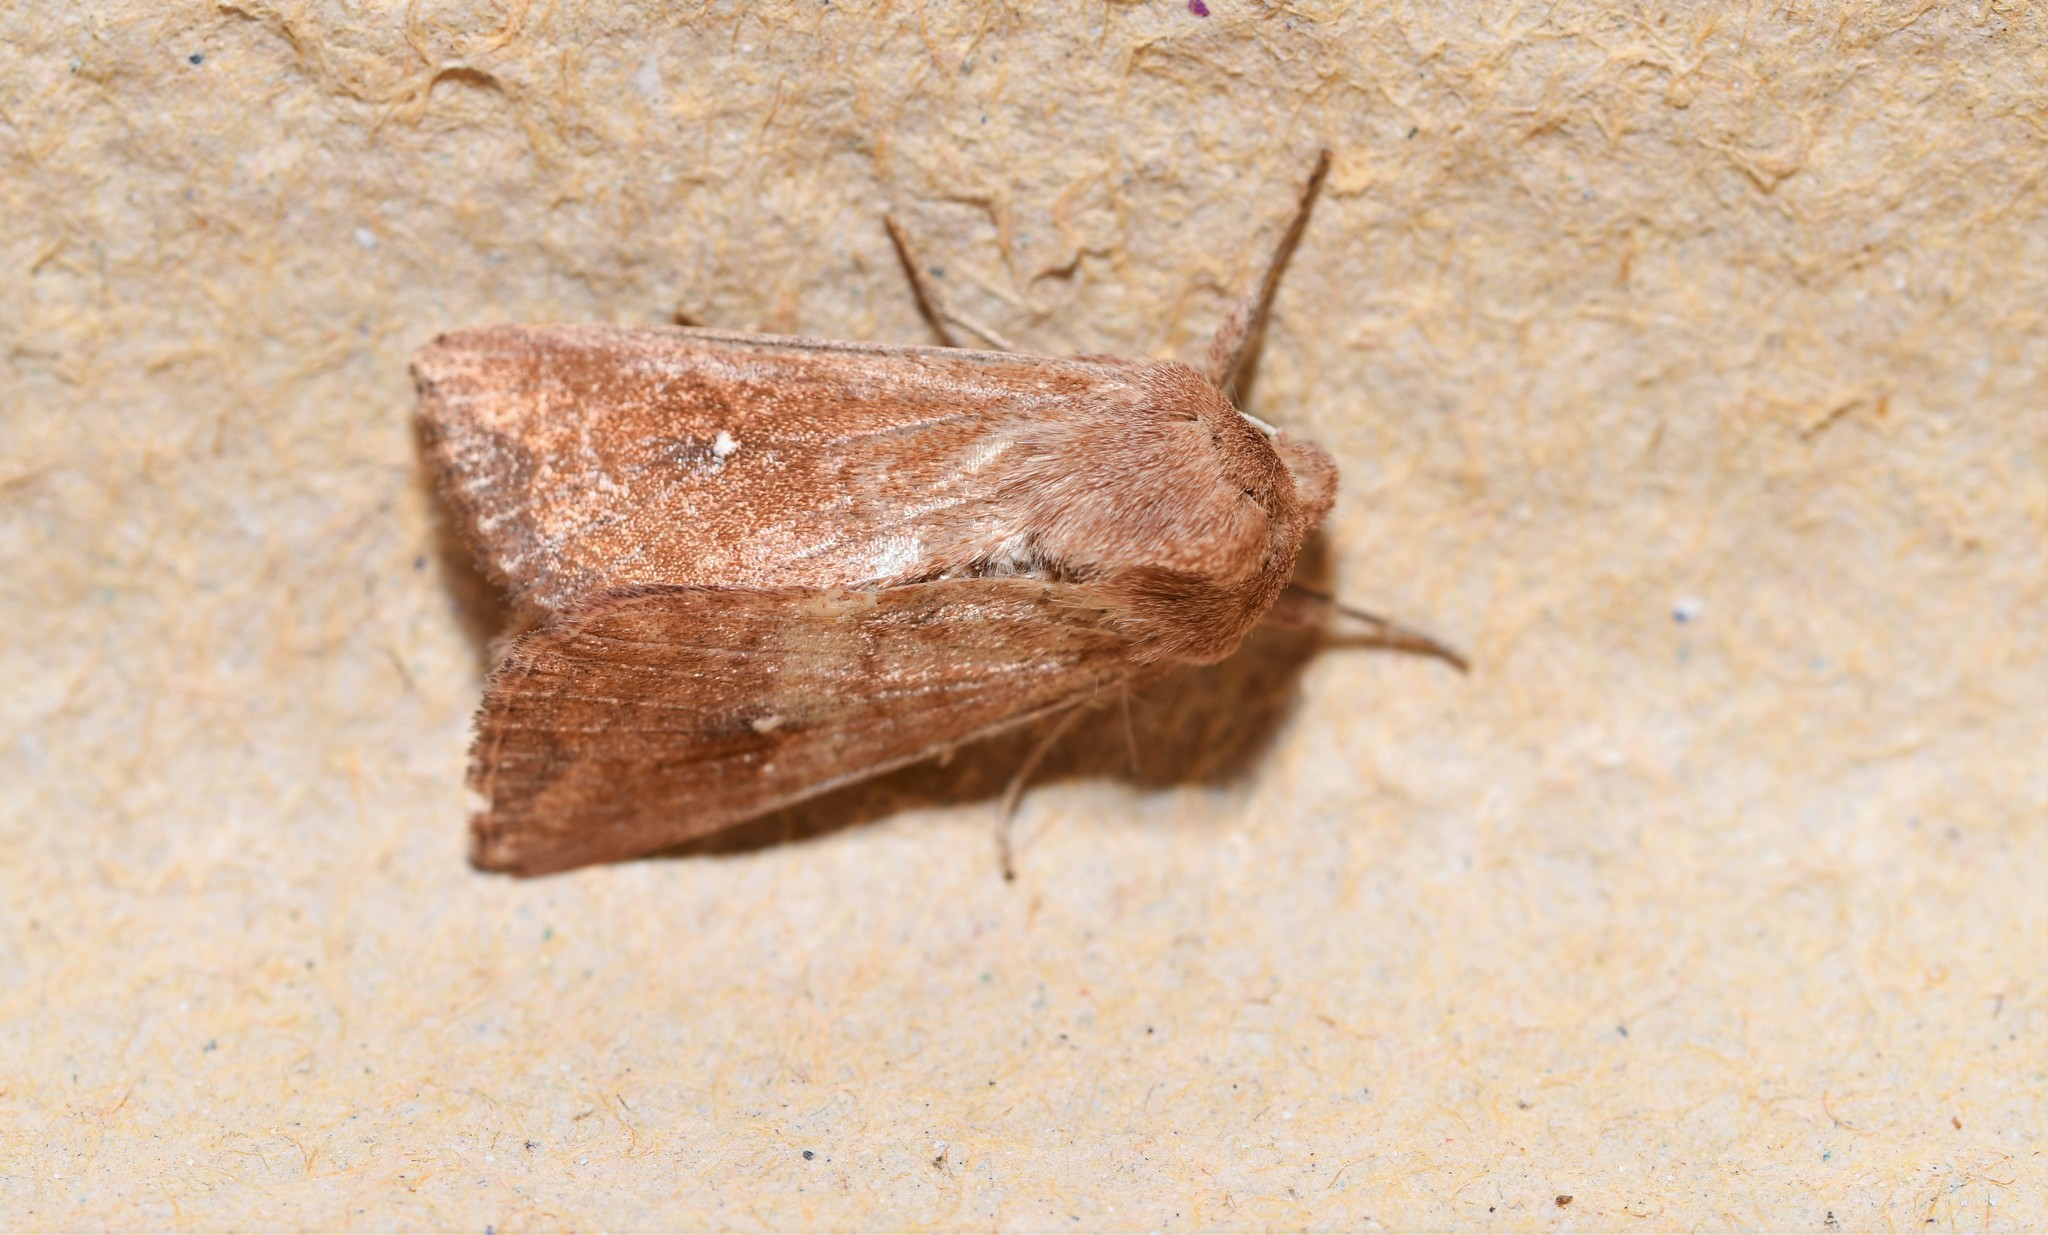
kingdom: Animalia
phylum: Arthropoda
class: Insecta
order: Lepidoptera
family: Noctuidae
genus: Mythimna
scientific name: Mythimna albipuncta
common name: White-point
